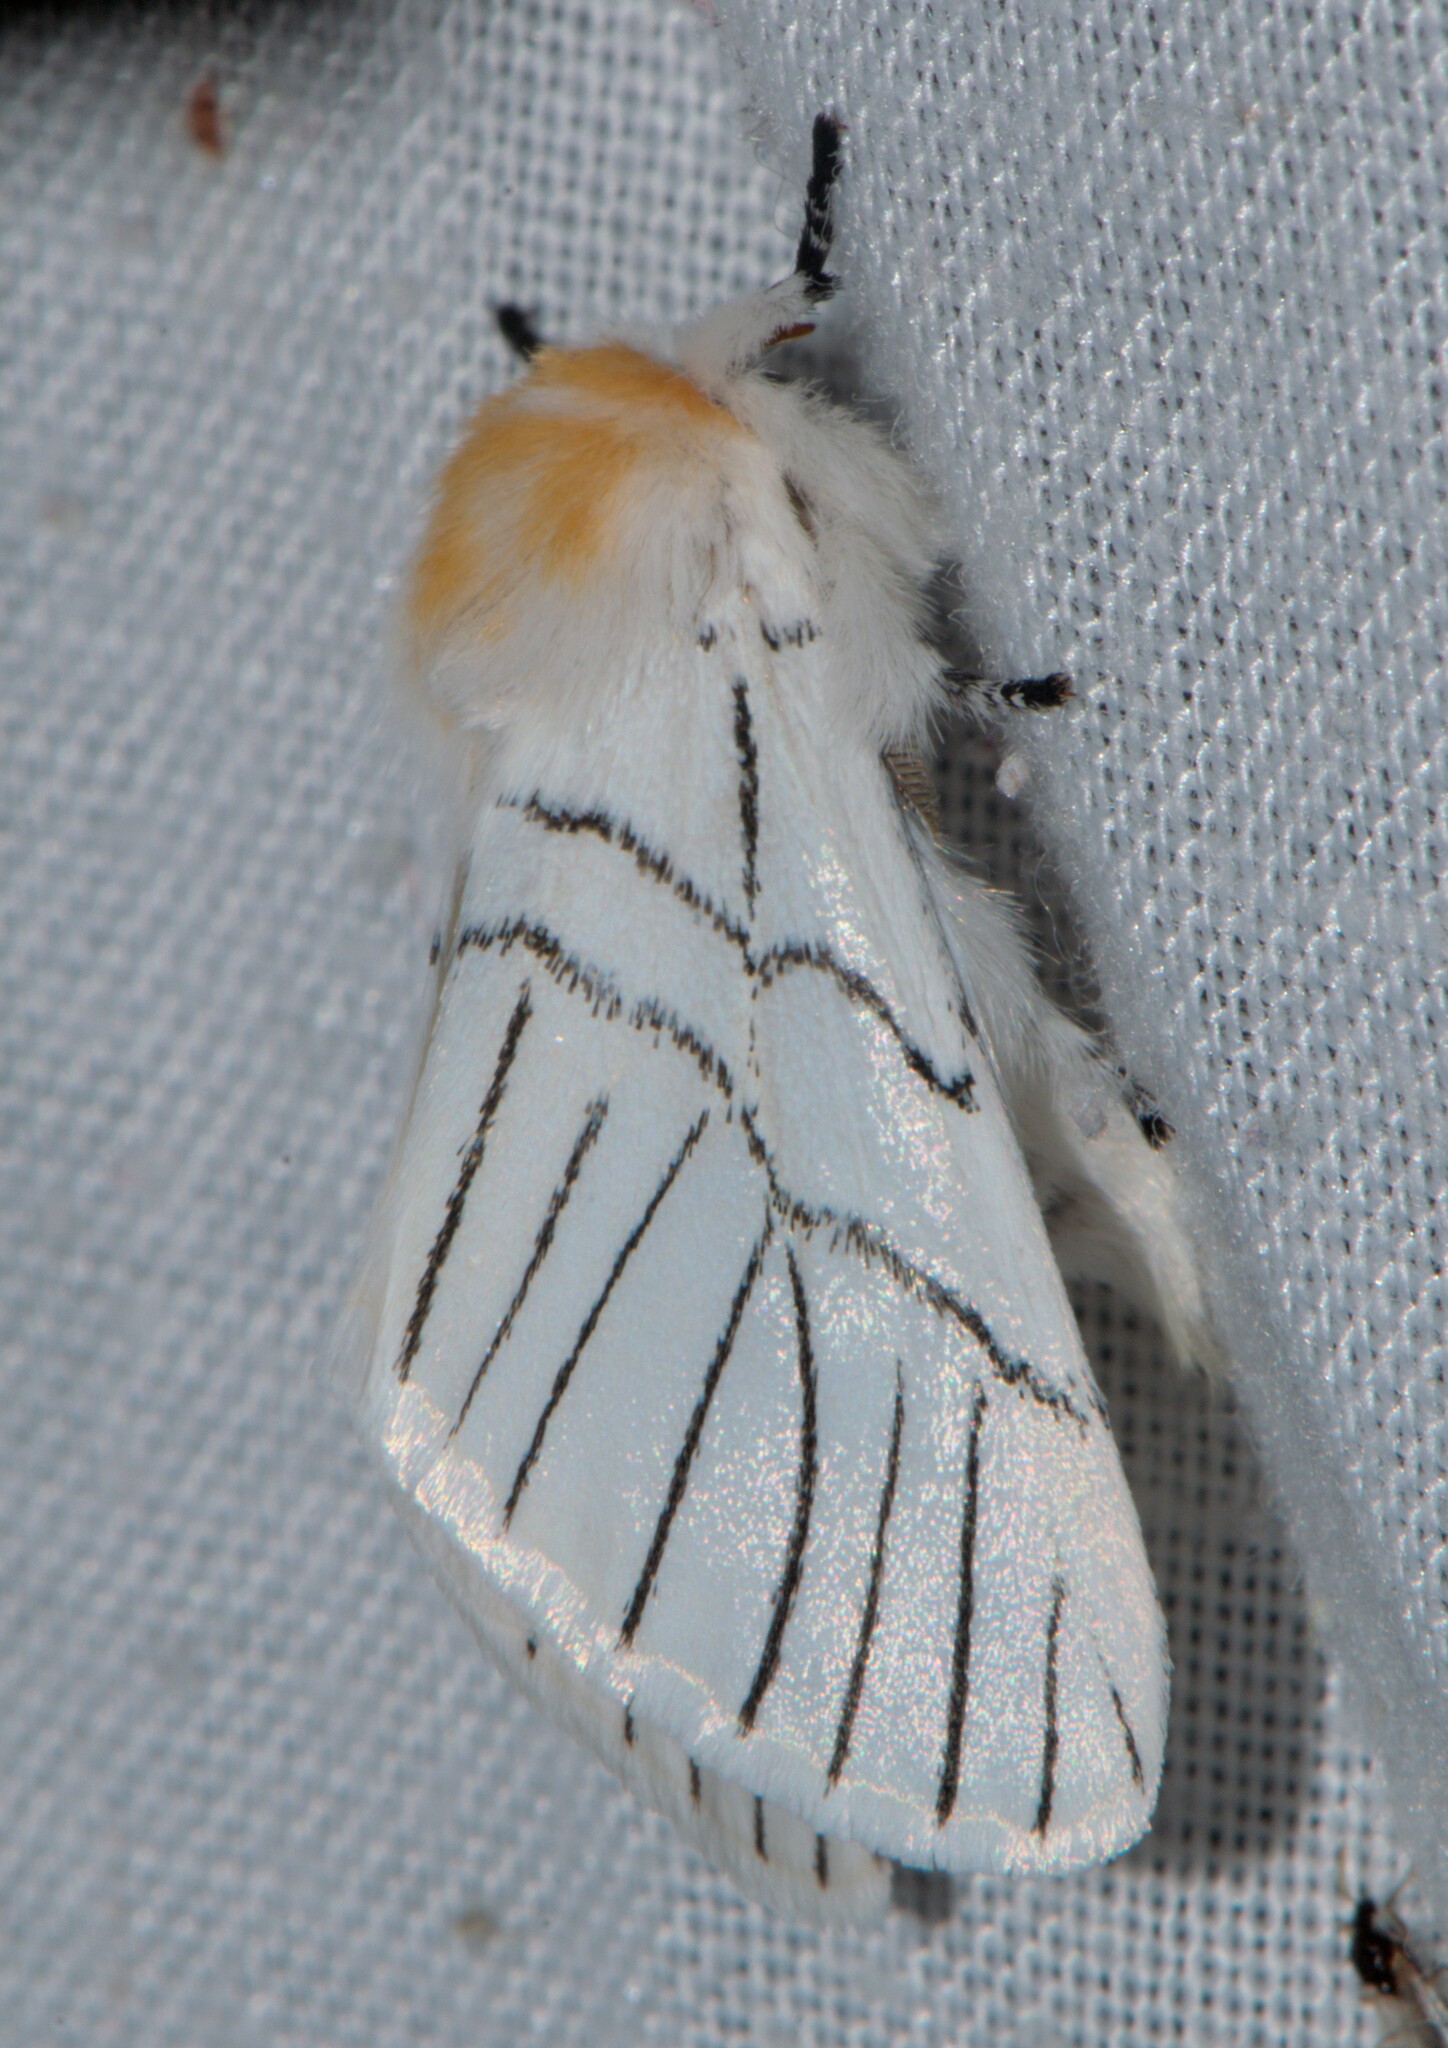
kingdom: Animalia
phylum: Arthropoda
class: Insecta
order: Lepidoptera
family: Notodontidae
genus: Oligoclona
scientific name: Oligoclona chrysolopha
